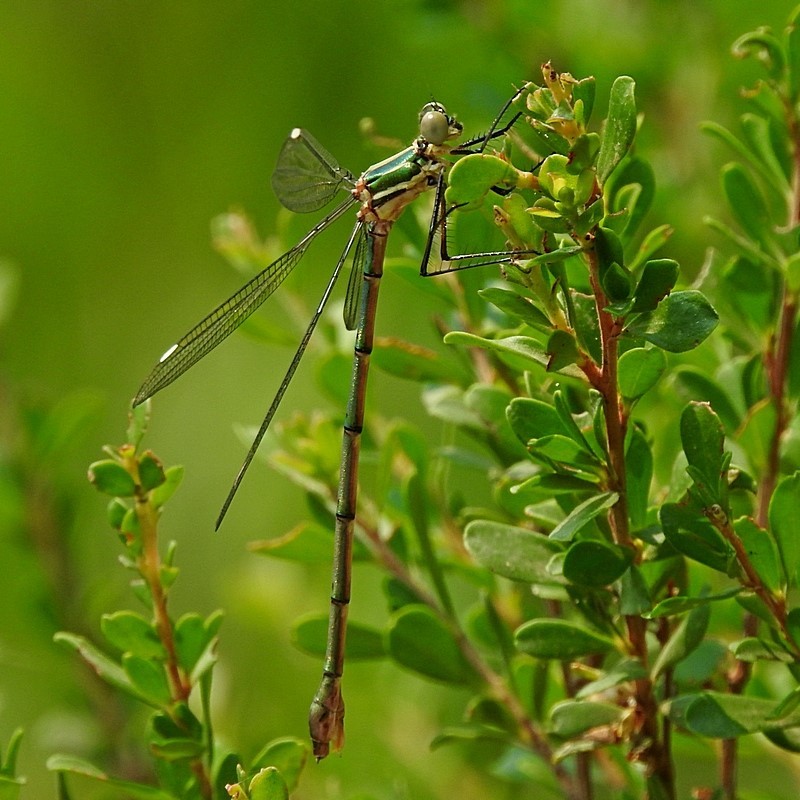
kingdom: Animalia
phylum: Arthropoda
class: Insecta
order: Odonata
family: Synlestidae
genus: Synlestes
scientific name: Synlestes weyersii
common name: Bronze needle
